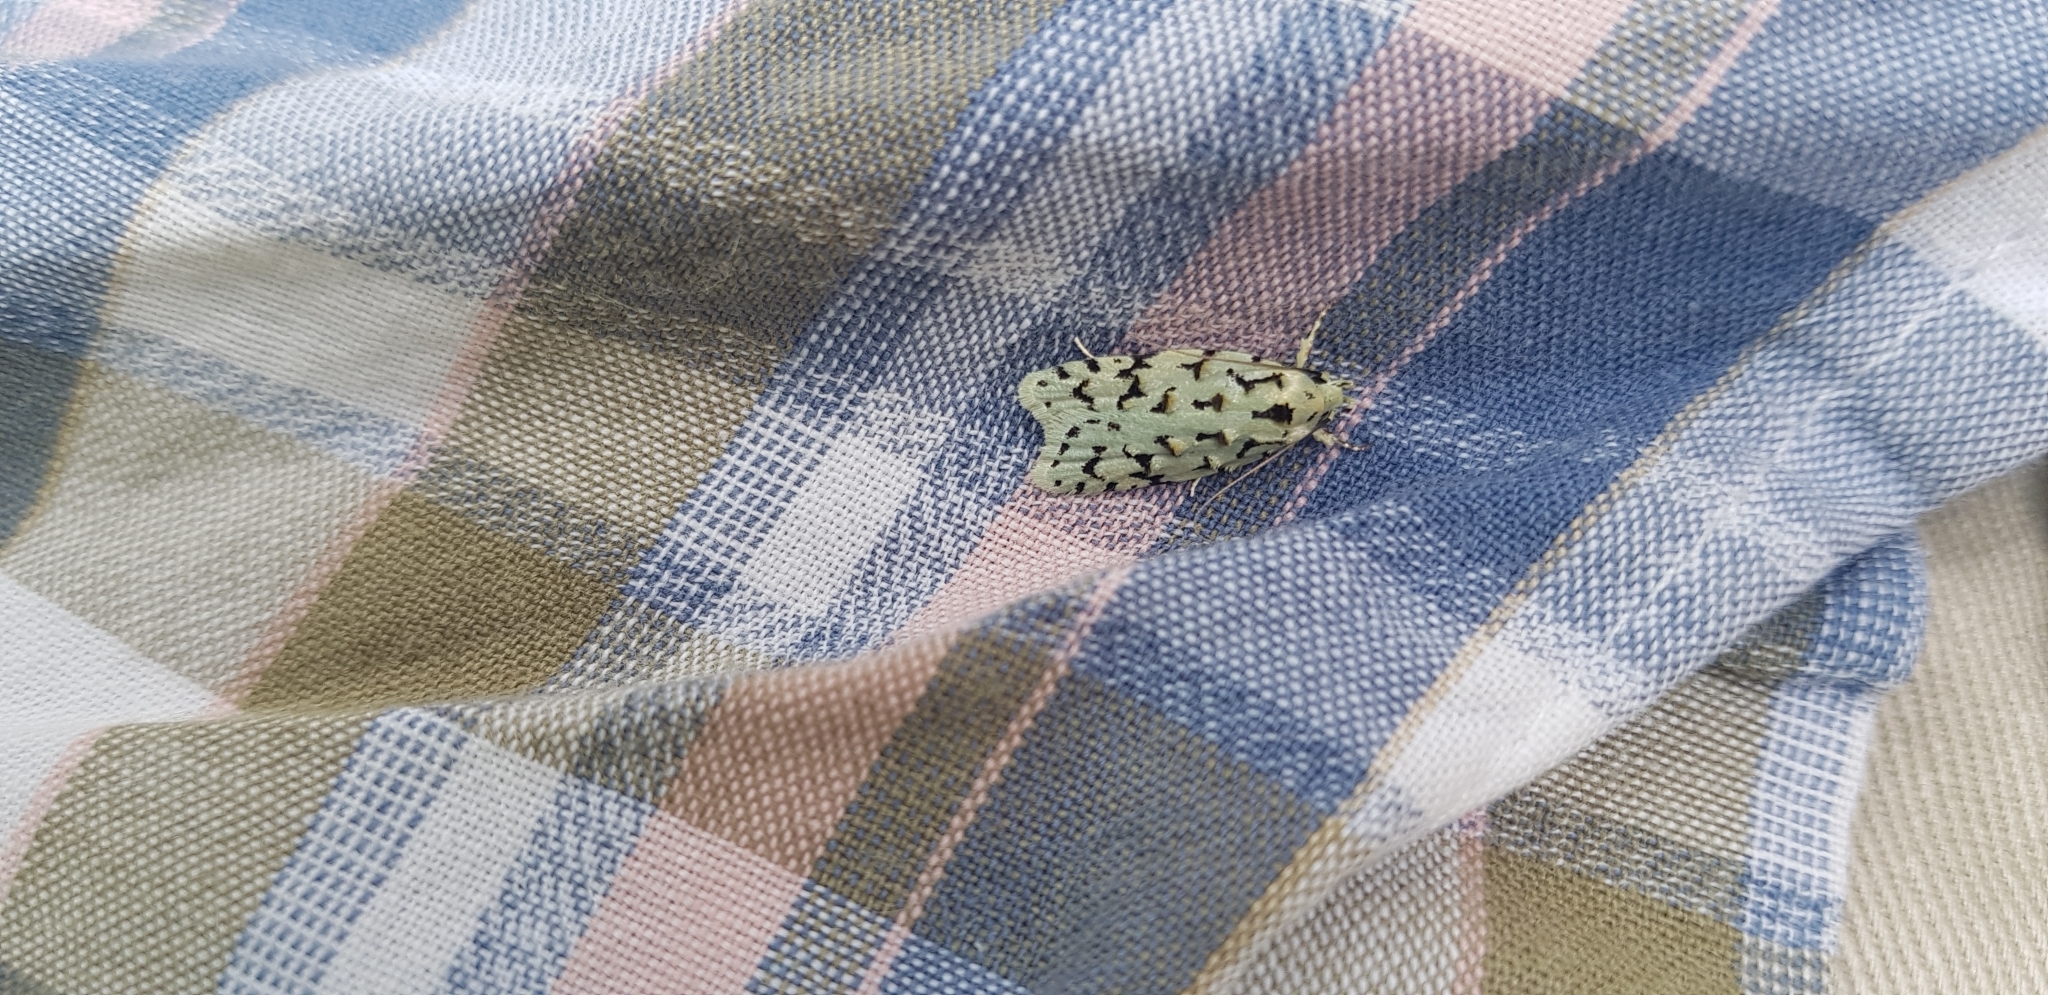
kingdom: Animalia
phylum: Arthropoda
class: Insecta
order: Lepidoptera
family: Oecophoridae
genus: Izatha
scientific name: Izatha peroneanella
